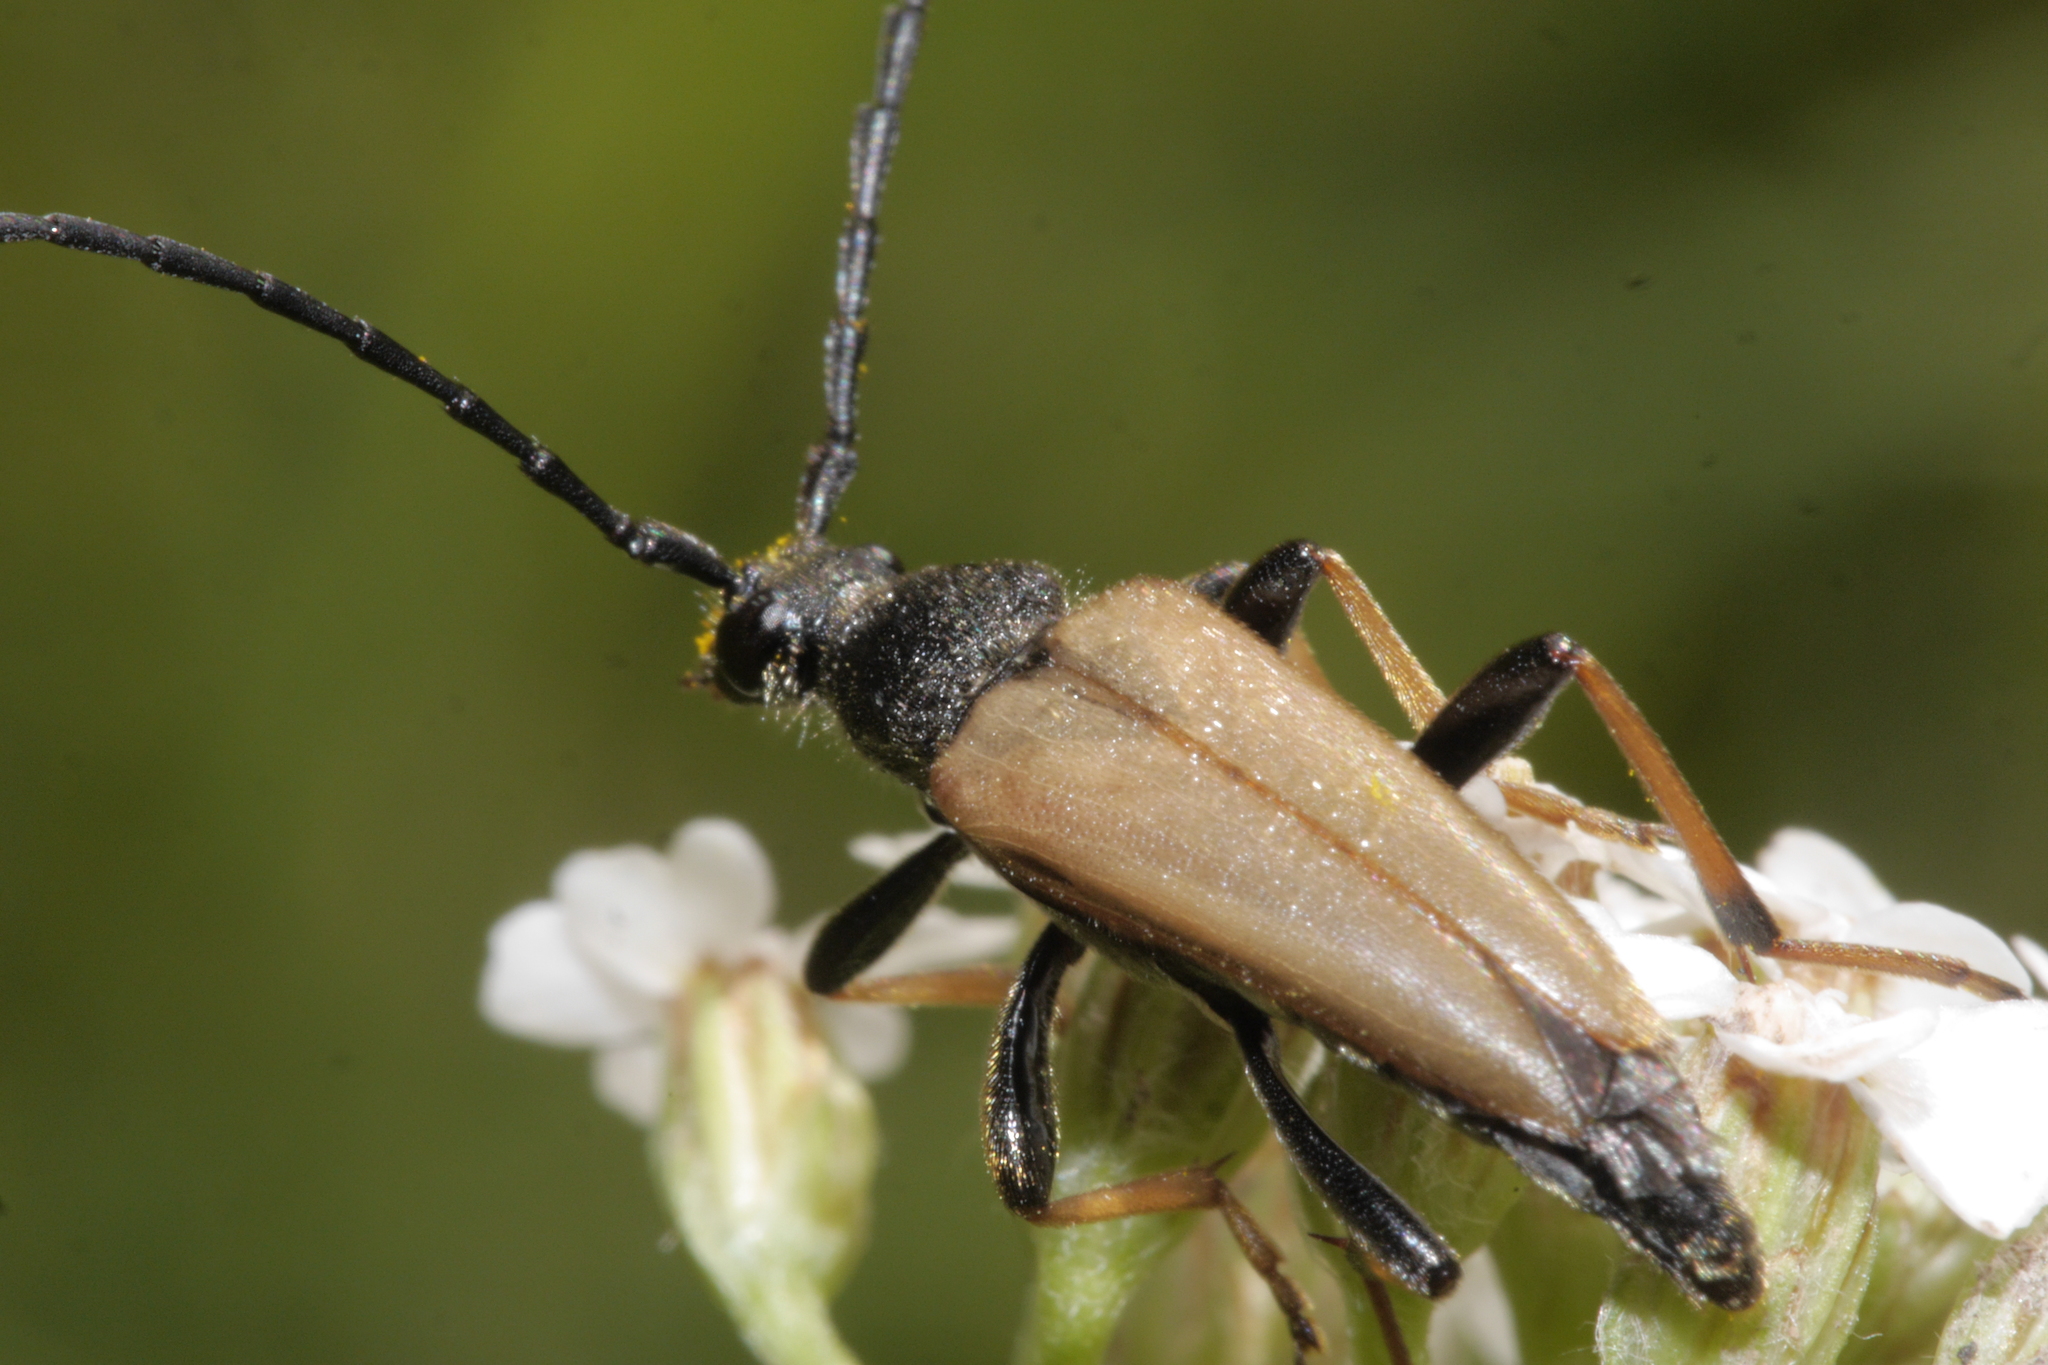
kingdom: Animalia
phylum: Arthropoda
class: Insecta
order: Coleoptera
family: Cerambycidae
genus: Stictoleptura
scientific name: Stictoleptura rubra
